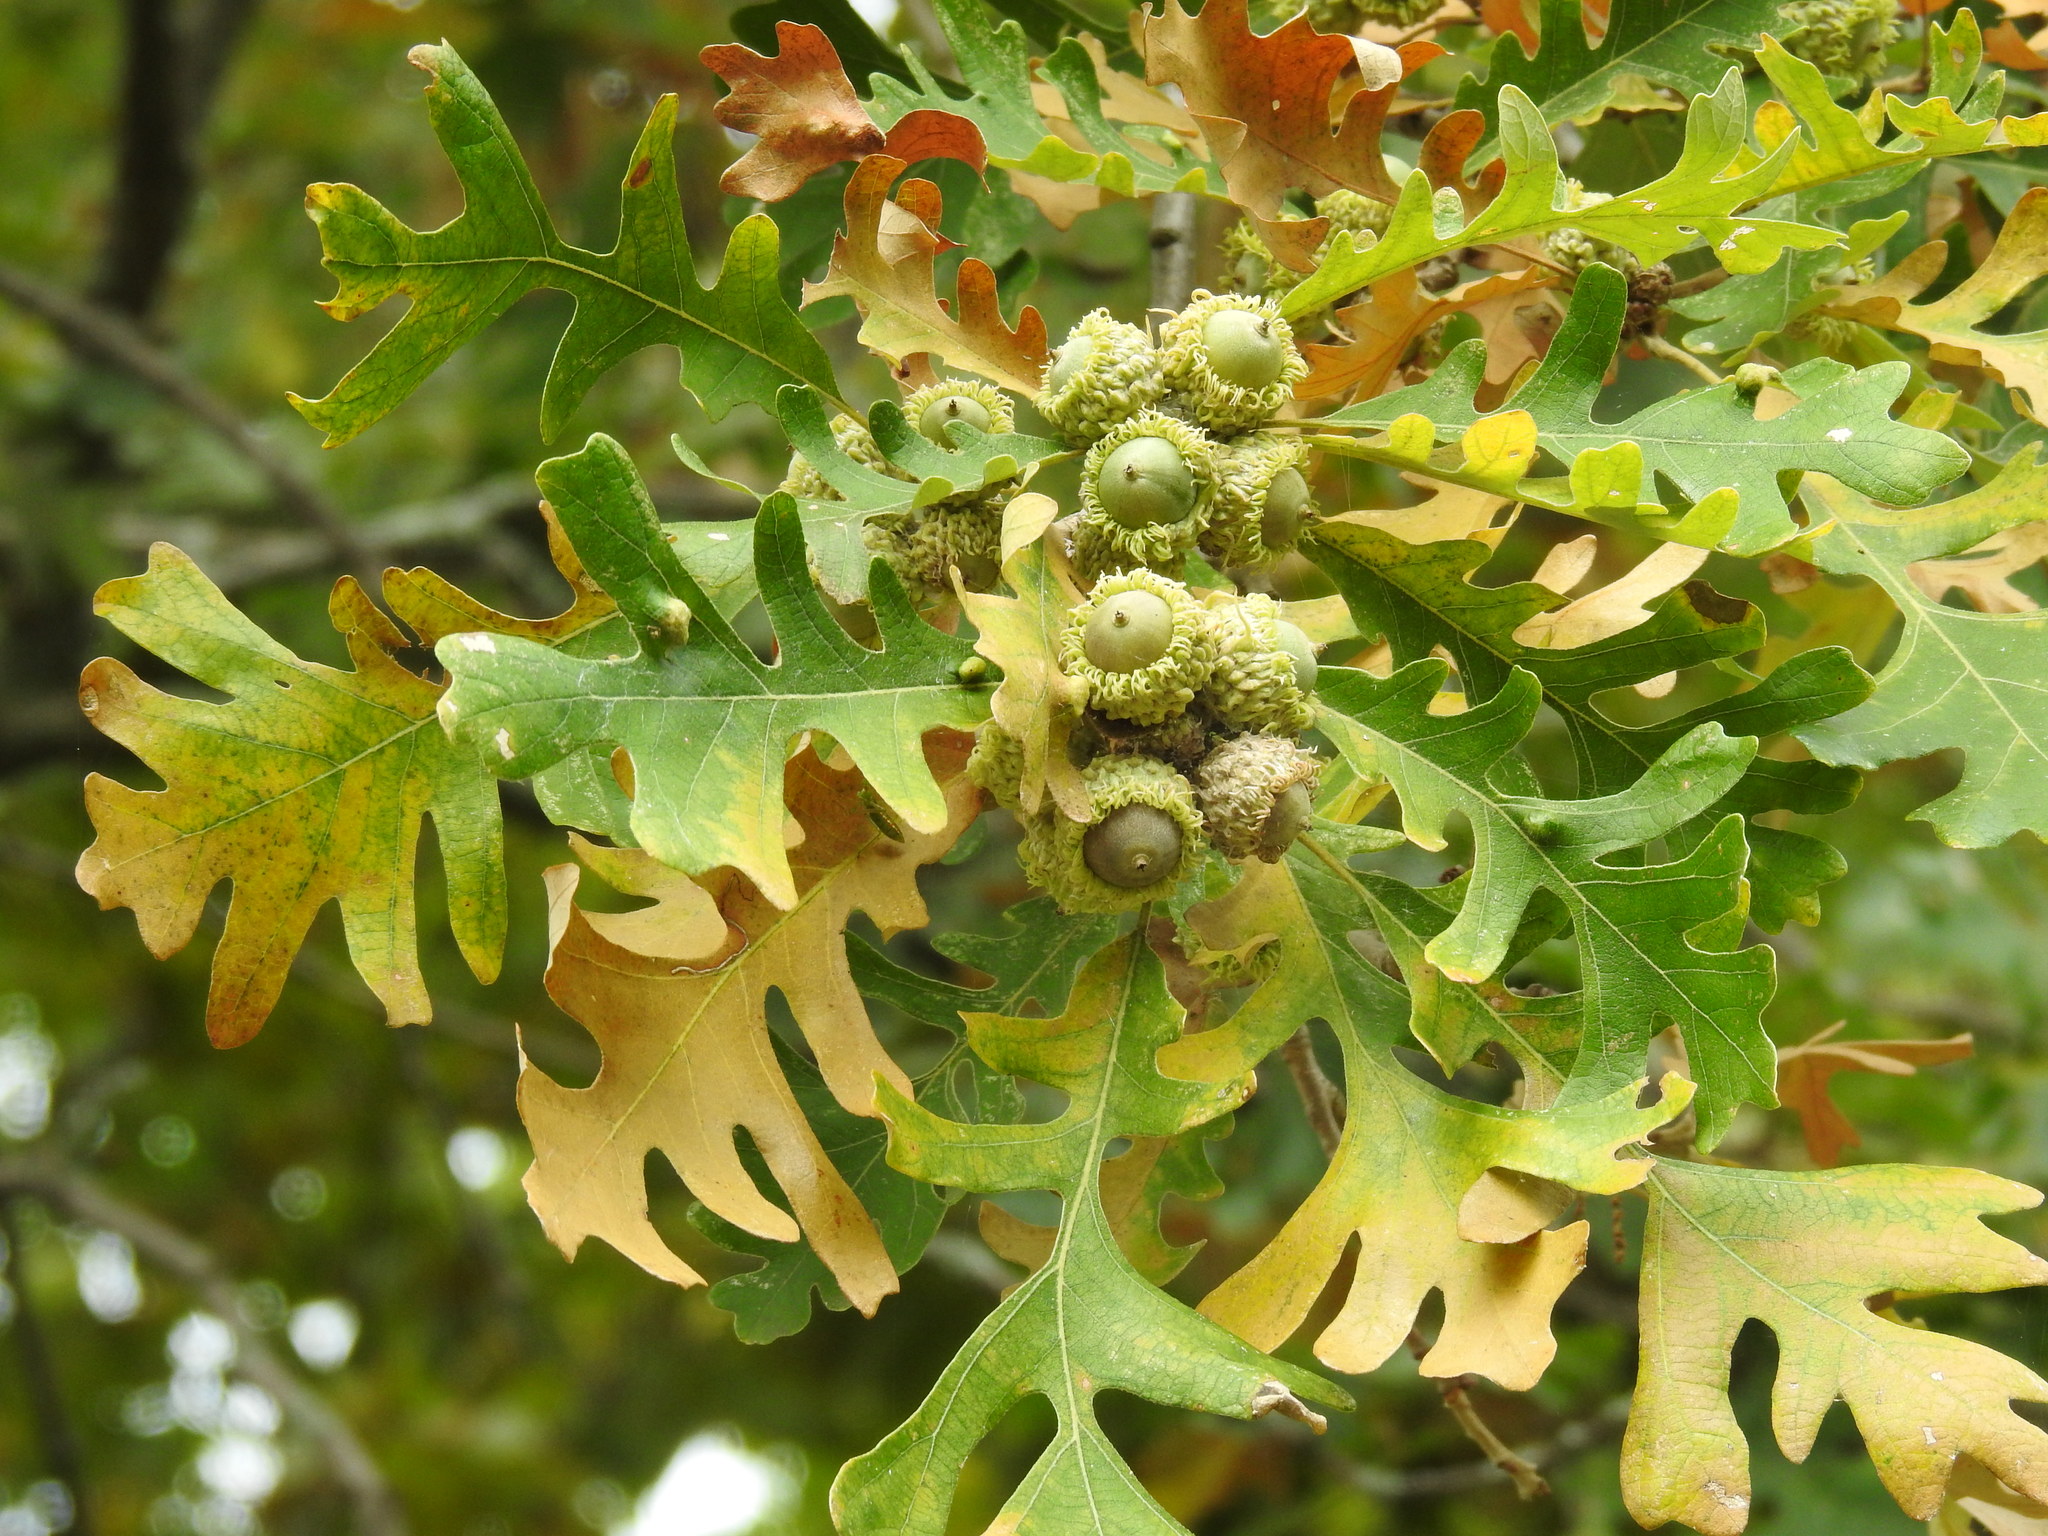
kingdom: Plantae
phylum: Tracheophyta
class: Magnoliopsida
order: Fagales
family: Fagaceae
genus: Quercus
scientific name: Quercus macrocarpa
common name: Bur oak
